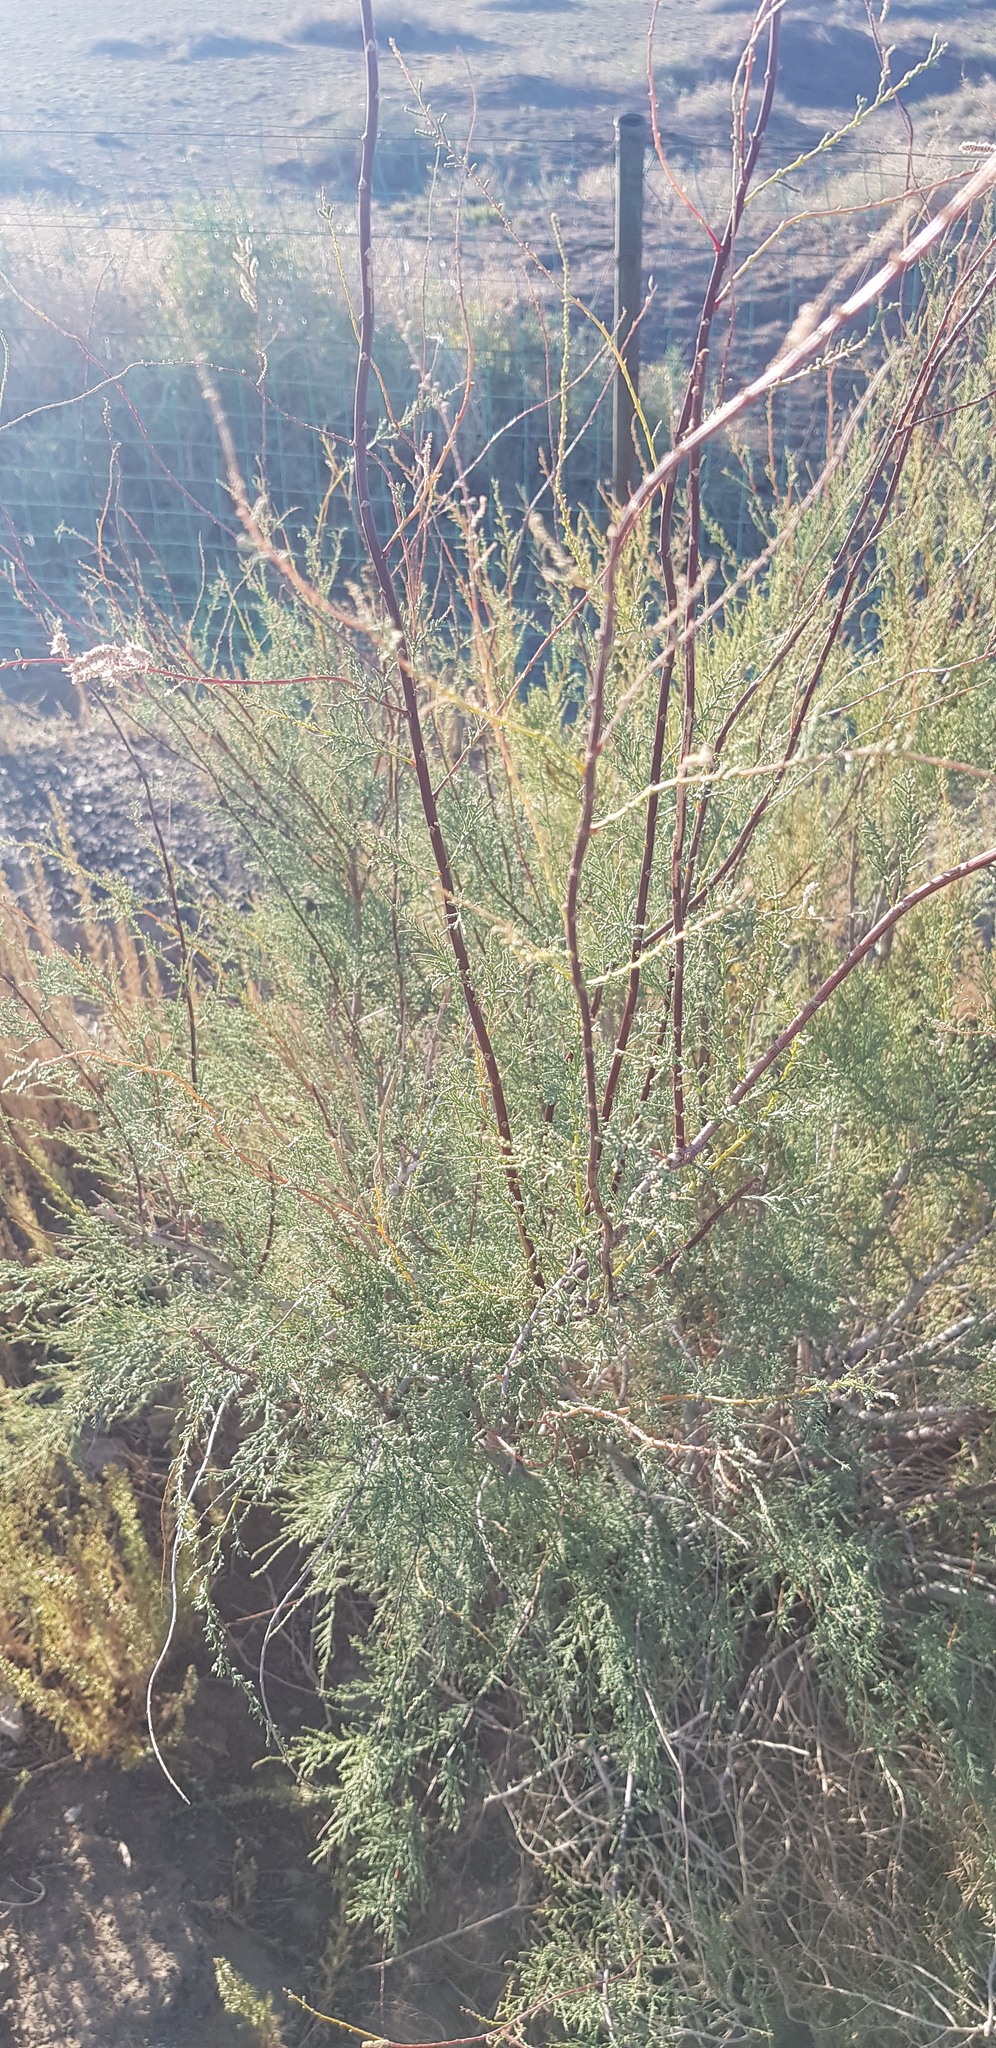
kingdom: Plantae
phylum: Tracheophyta
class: Magnoliopsida
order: Caryophyllales
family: Tamaricaceae
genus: Tamarix
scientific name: Tamarix ramosissima
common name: Pink tamarisk
